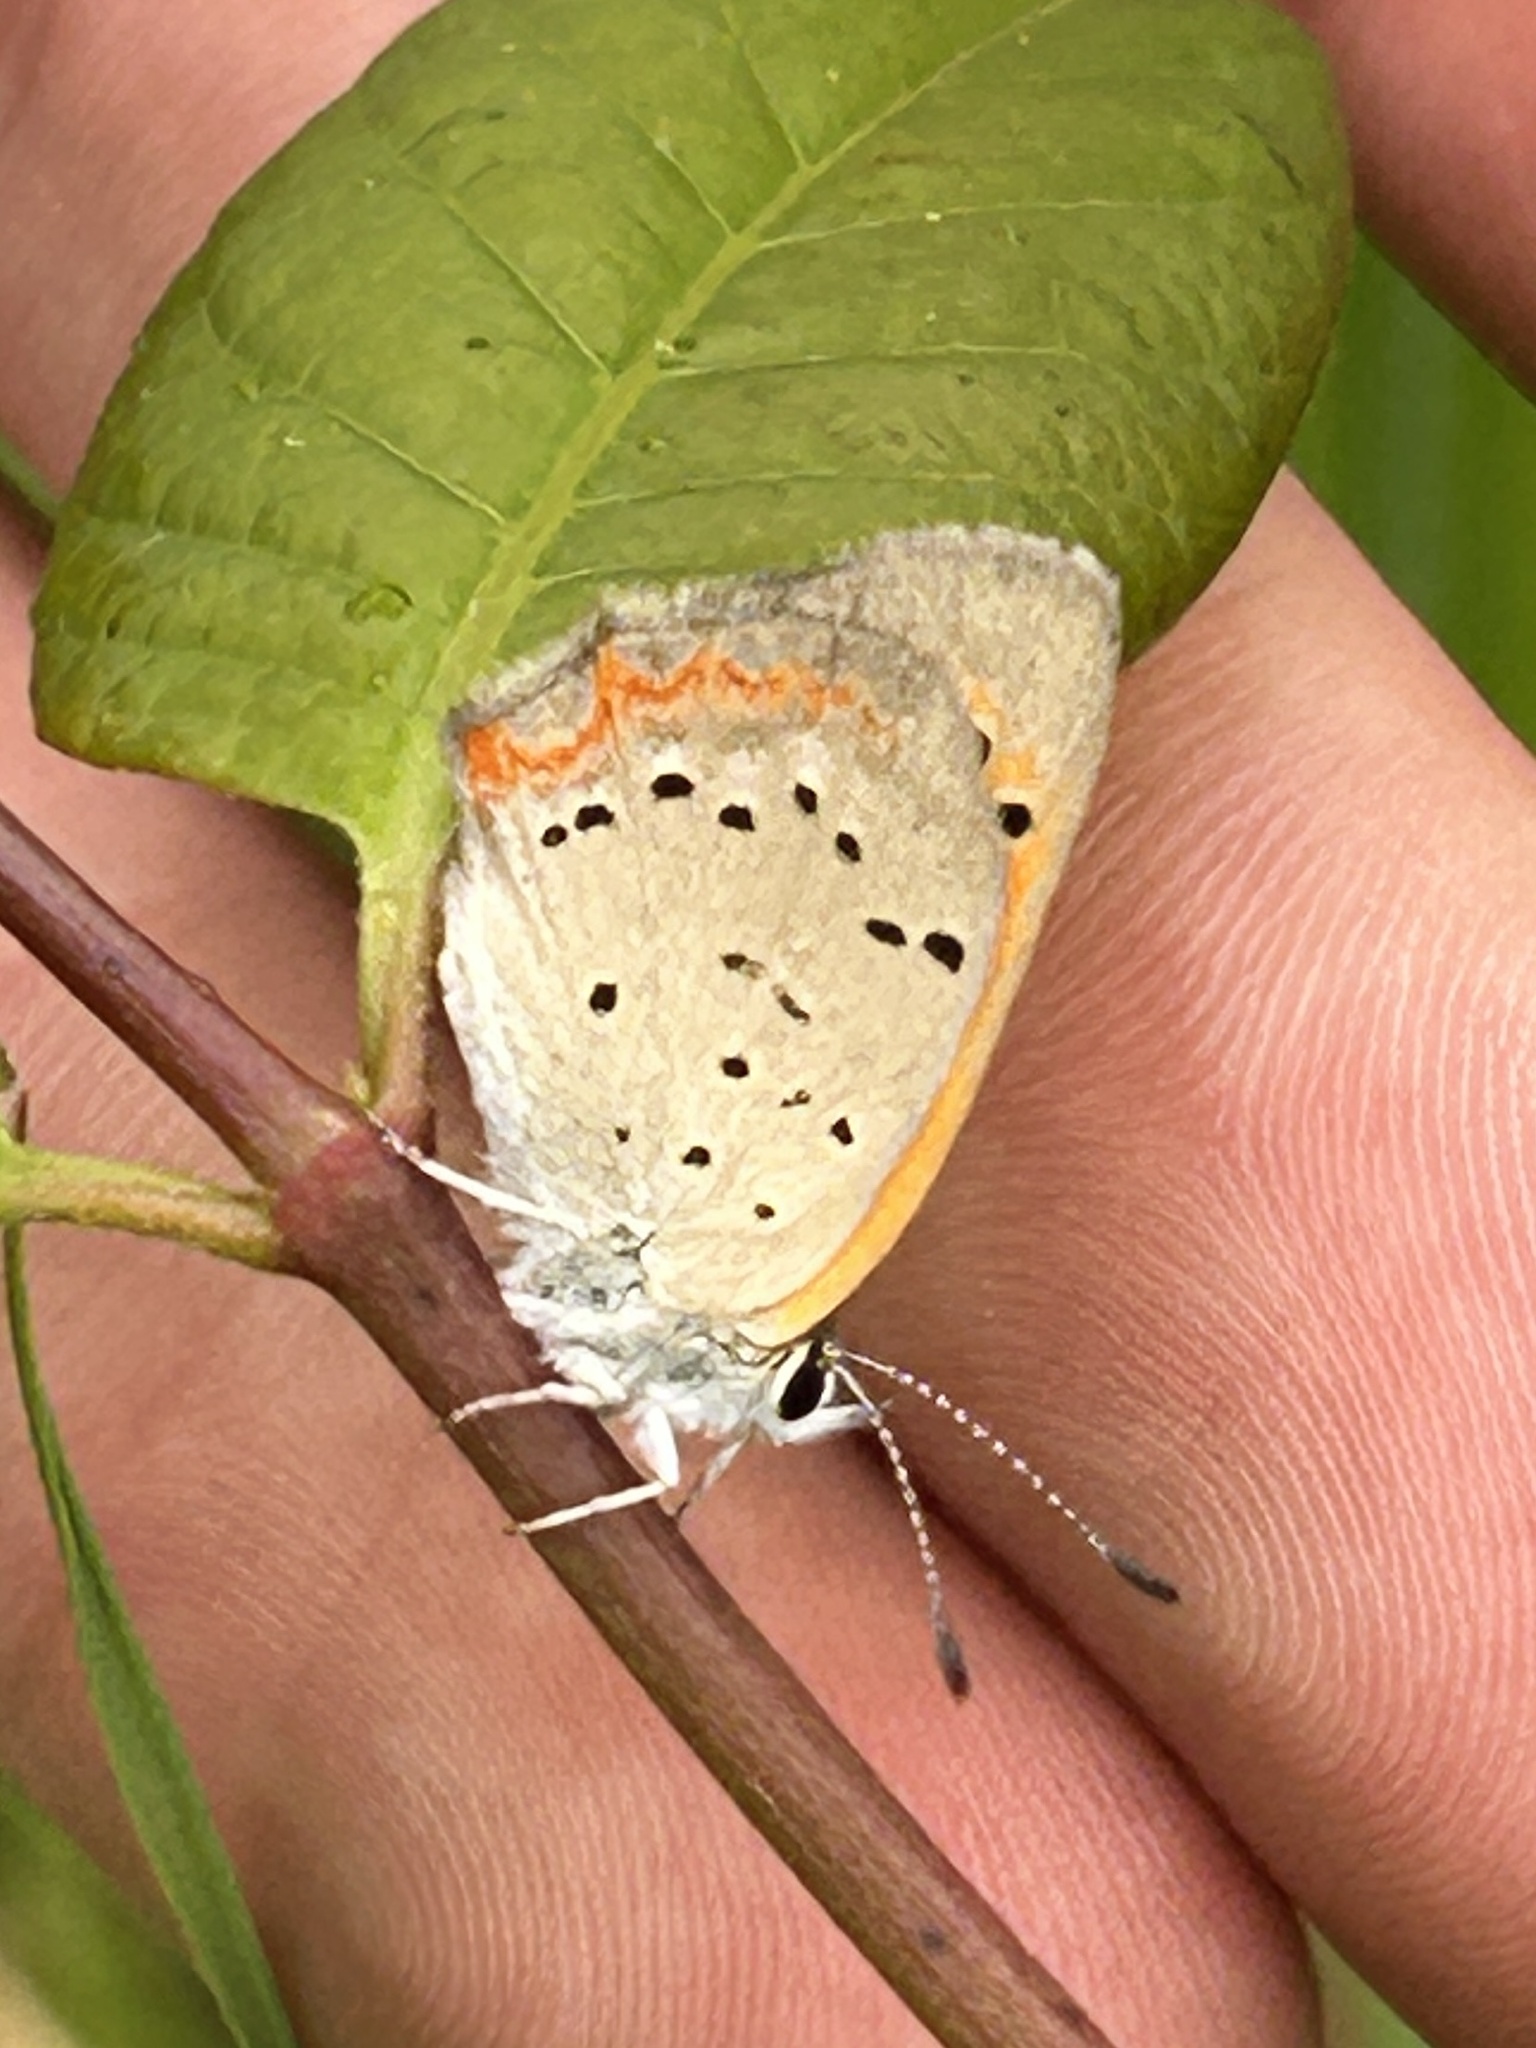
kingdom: Animalia
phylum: Arthropoda
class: Insecta
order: Lepidoptera
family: Lycaenidae
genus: Lycaena
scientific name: Lycaena hypophlaeas
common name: American copper
